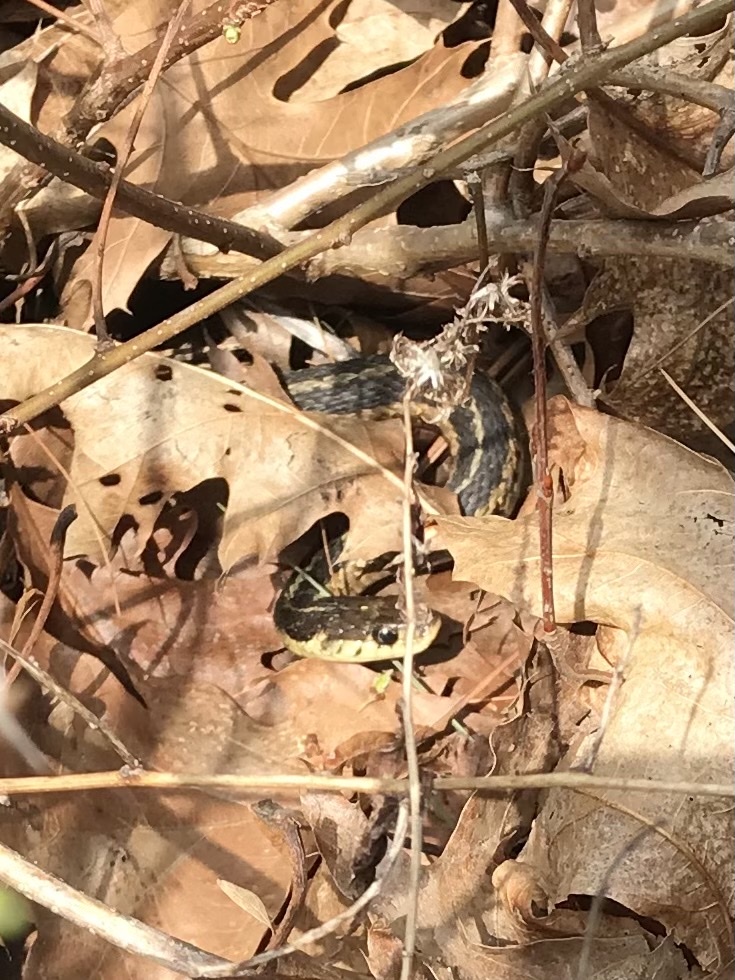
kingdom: Animalia
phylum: Chordata
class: Squamata
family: Colubridae
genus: Thamnophis
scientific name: Thamnophis sirtalis
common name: Common garter snake
